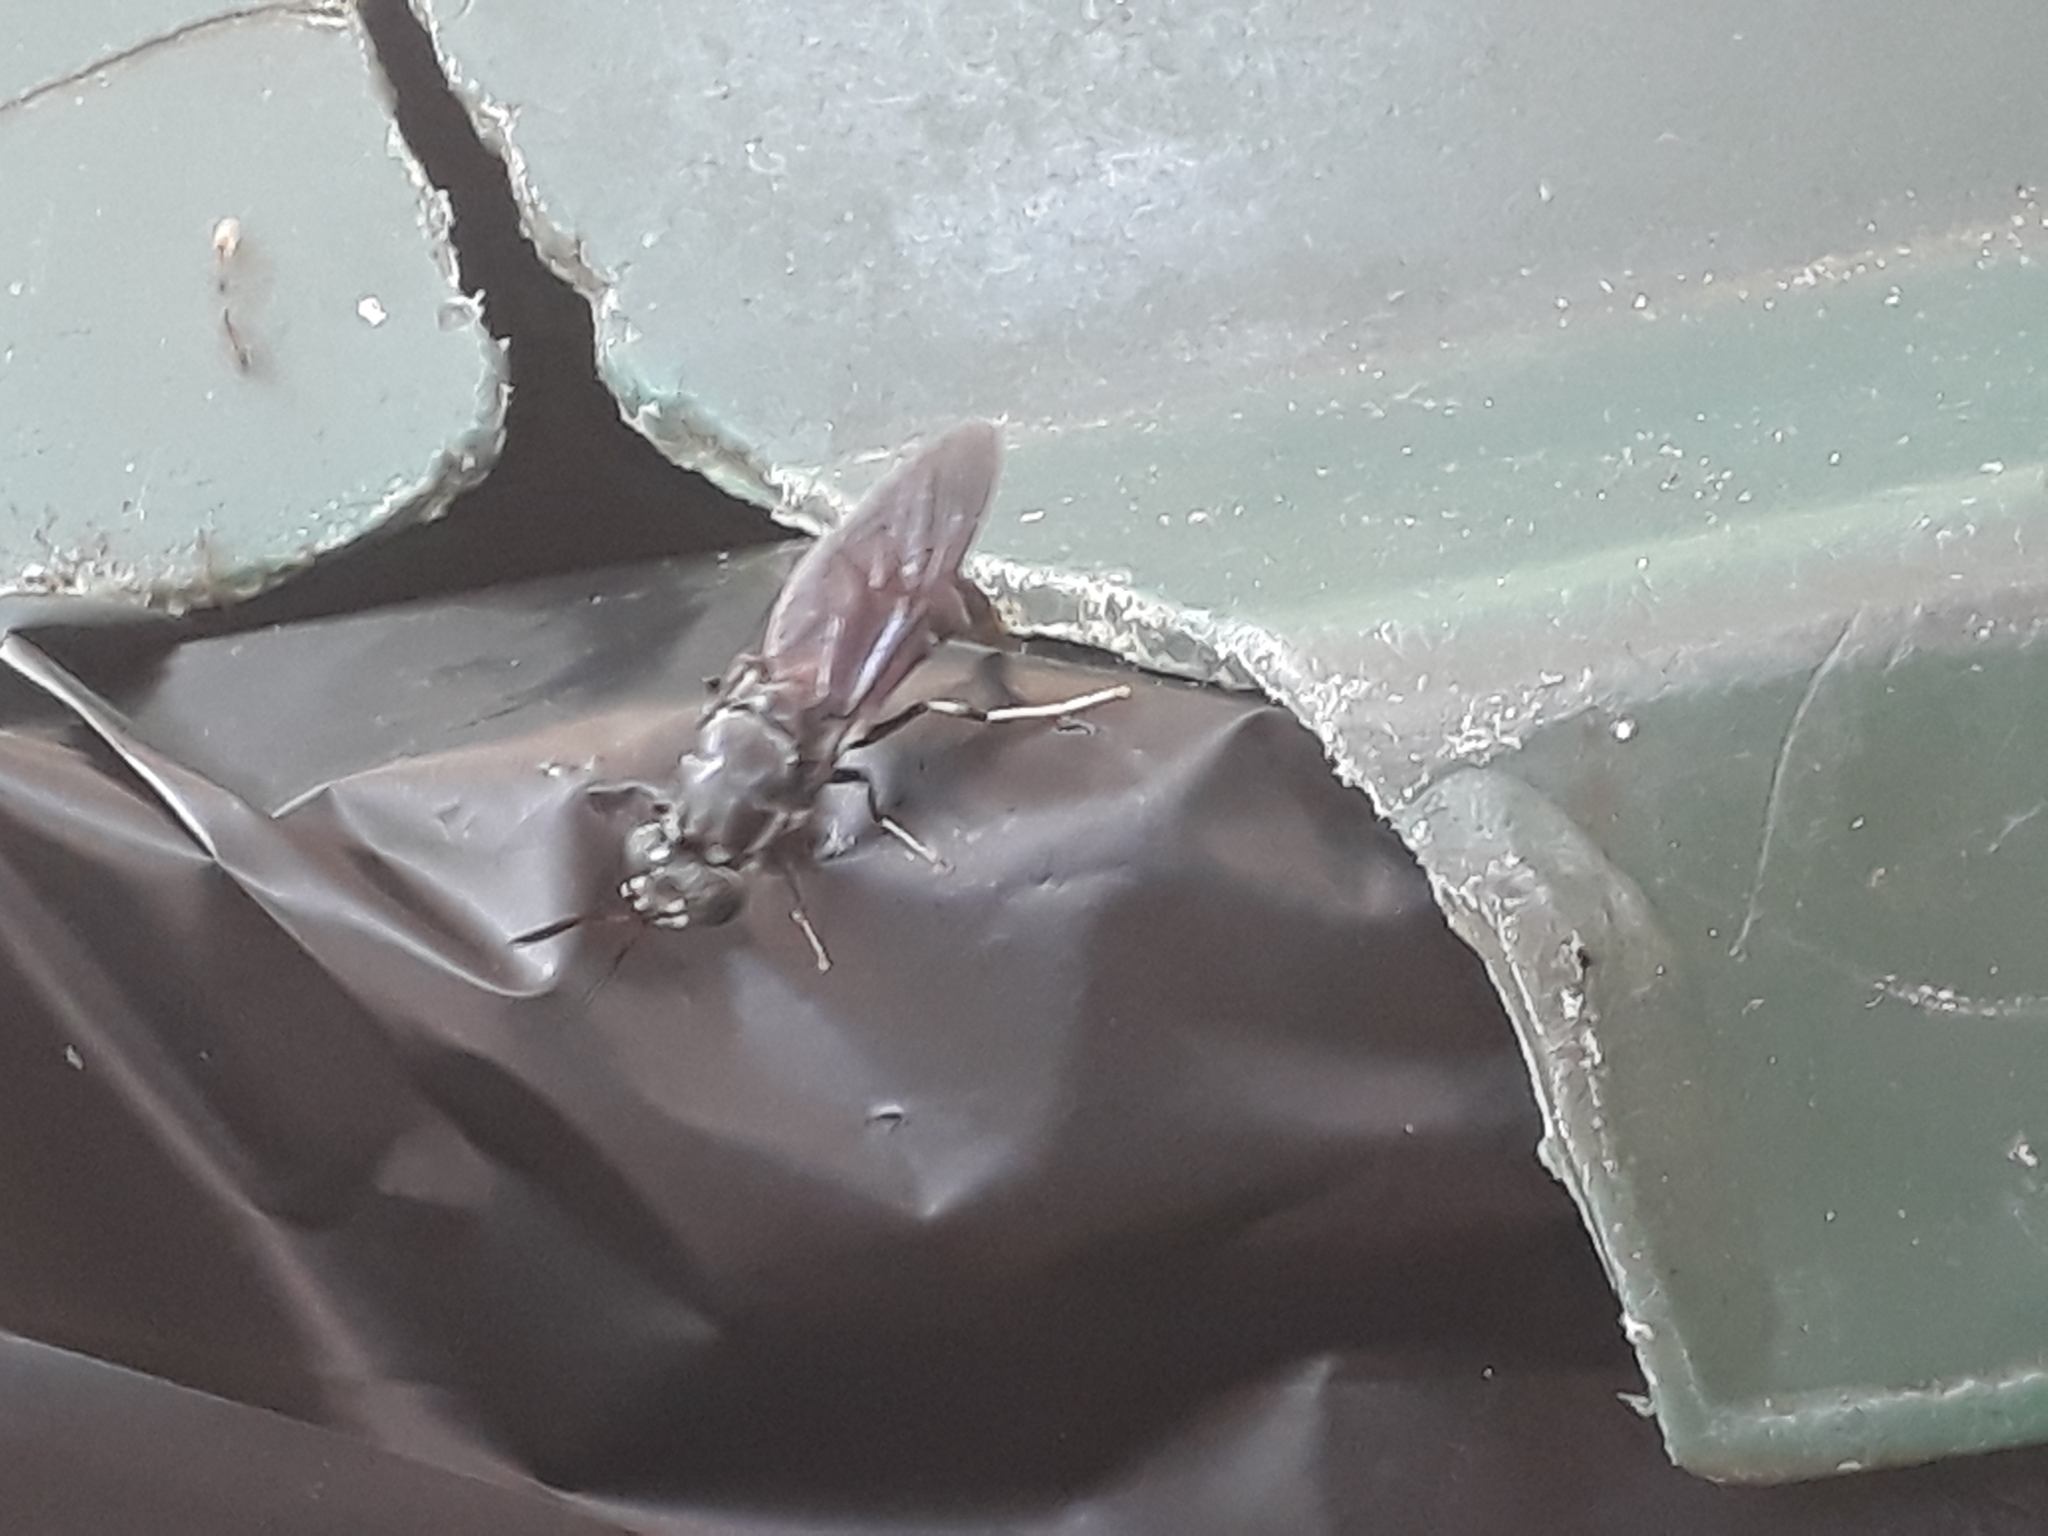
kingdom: Animalia
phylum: Arthropoda
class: Insecta
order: Diptera
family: Stratiomyidae
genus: Hermetia
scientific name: Hermetia illucens
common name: Black soldier fly
